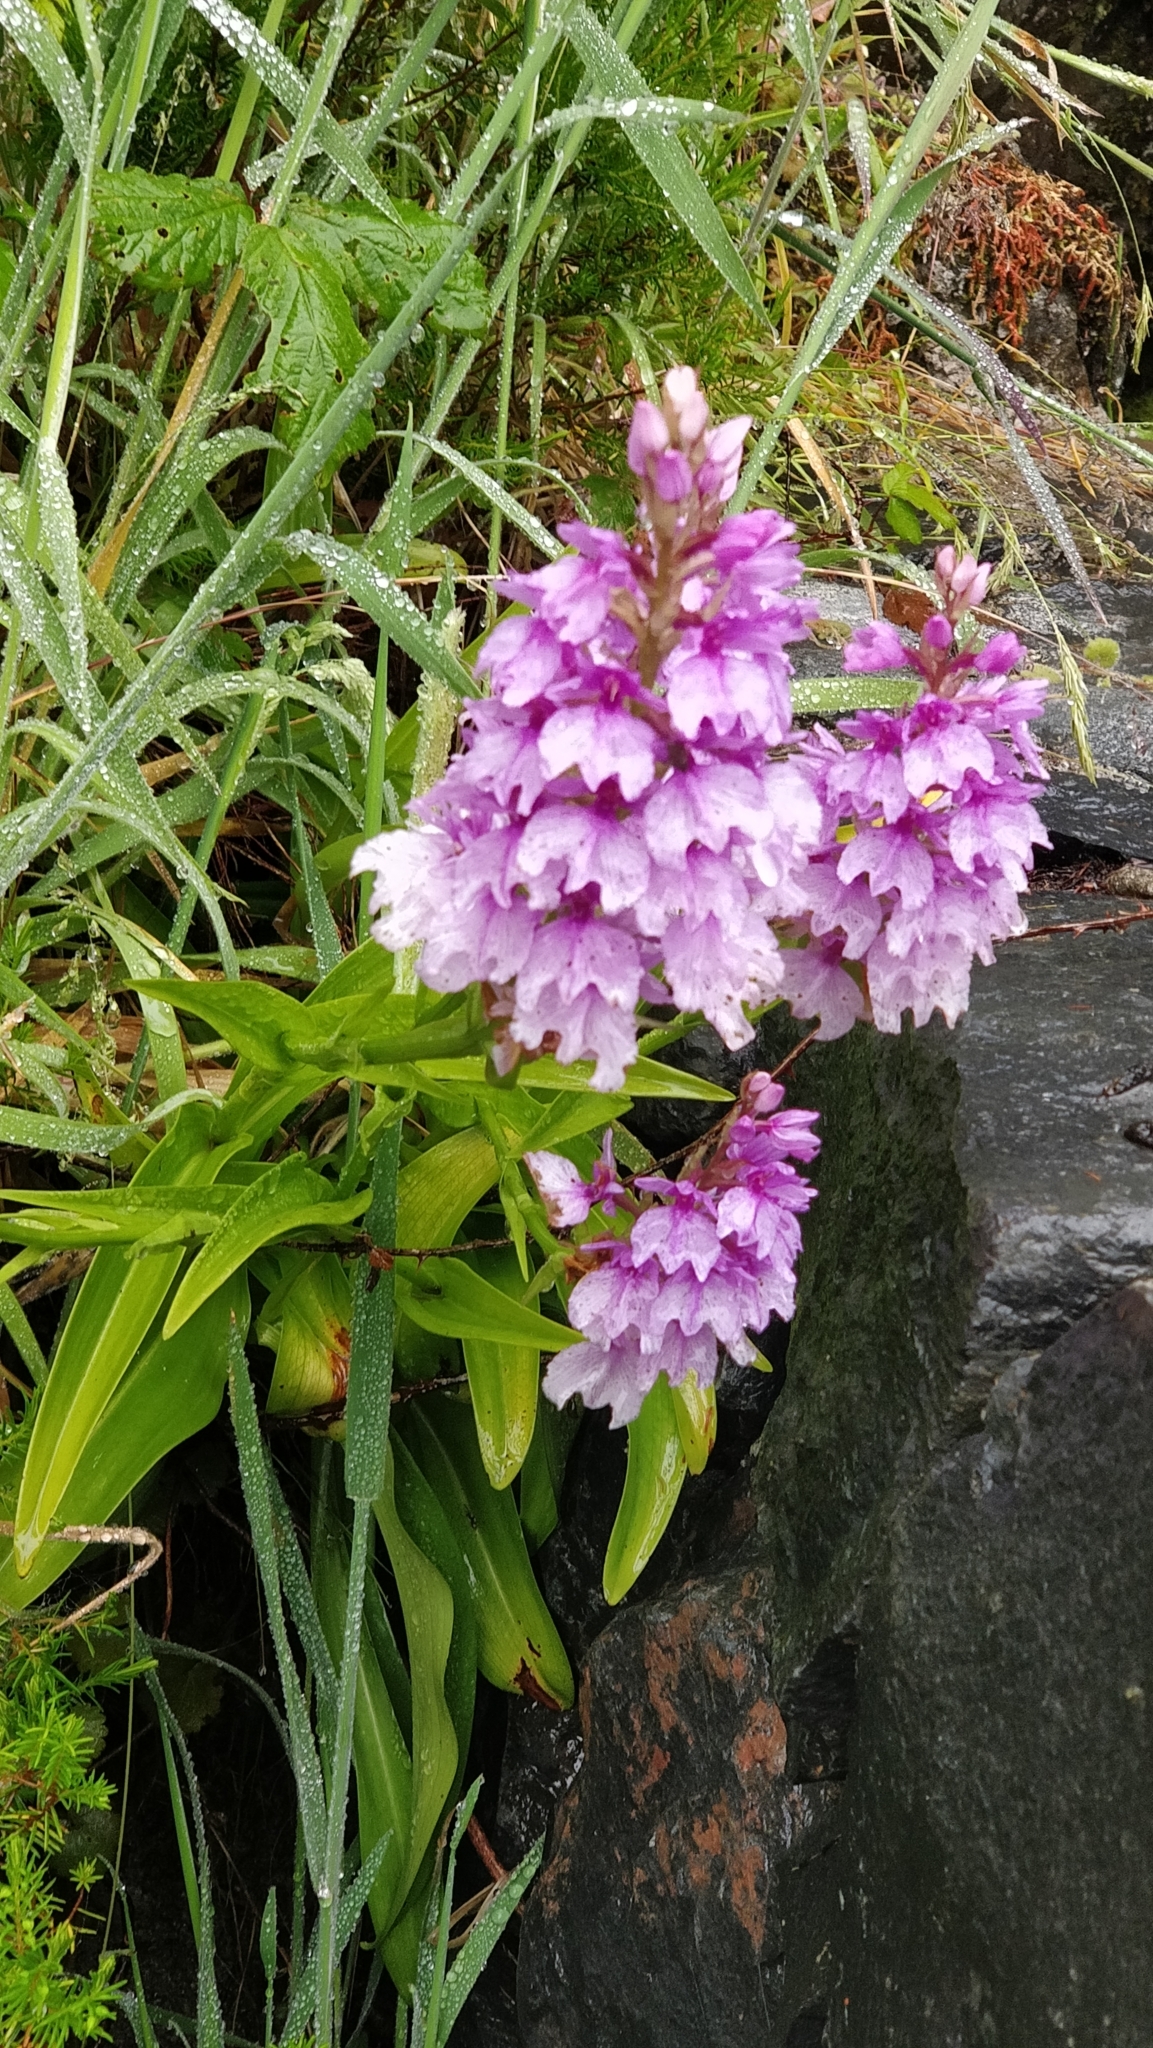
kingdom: Plantae
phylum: Tracheophyta
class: Liliopsida
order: Asparagales
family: Orchidaceae
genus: Dactylorhiza
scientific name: Dactylorhiza foliosa
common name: Richly-leaved dactylorhiza
